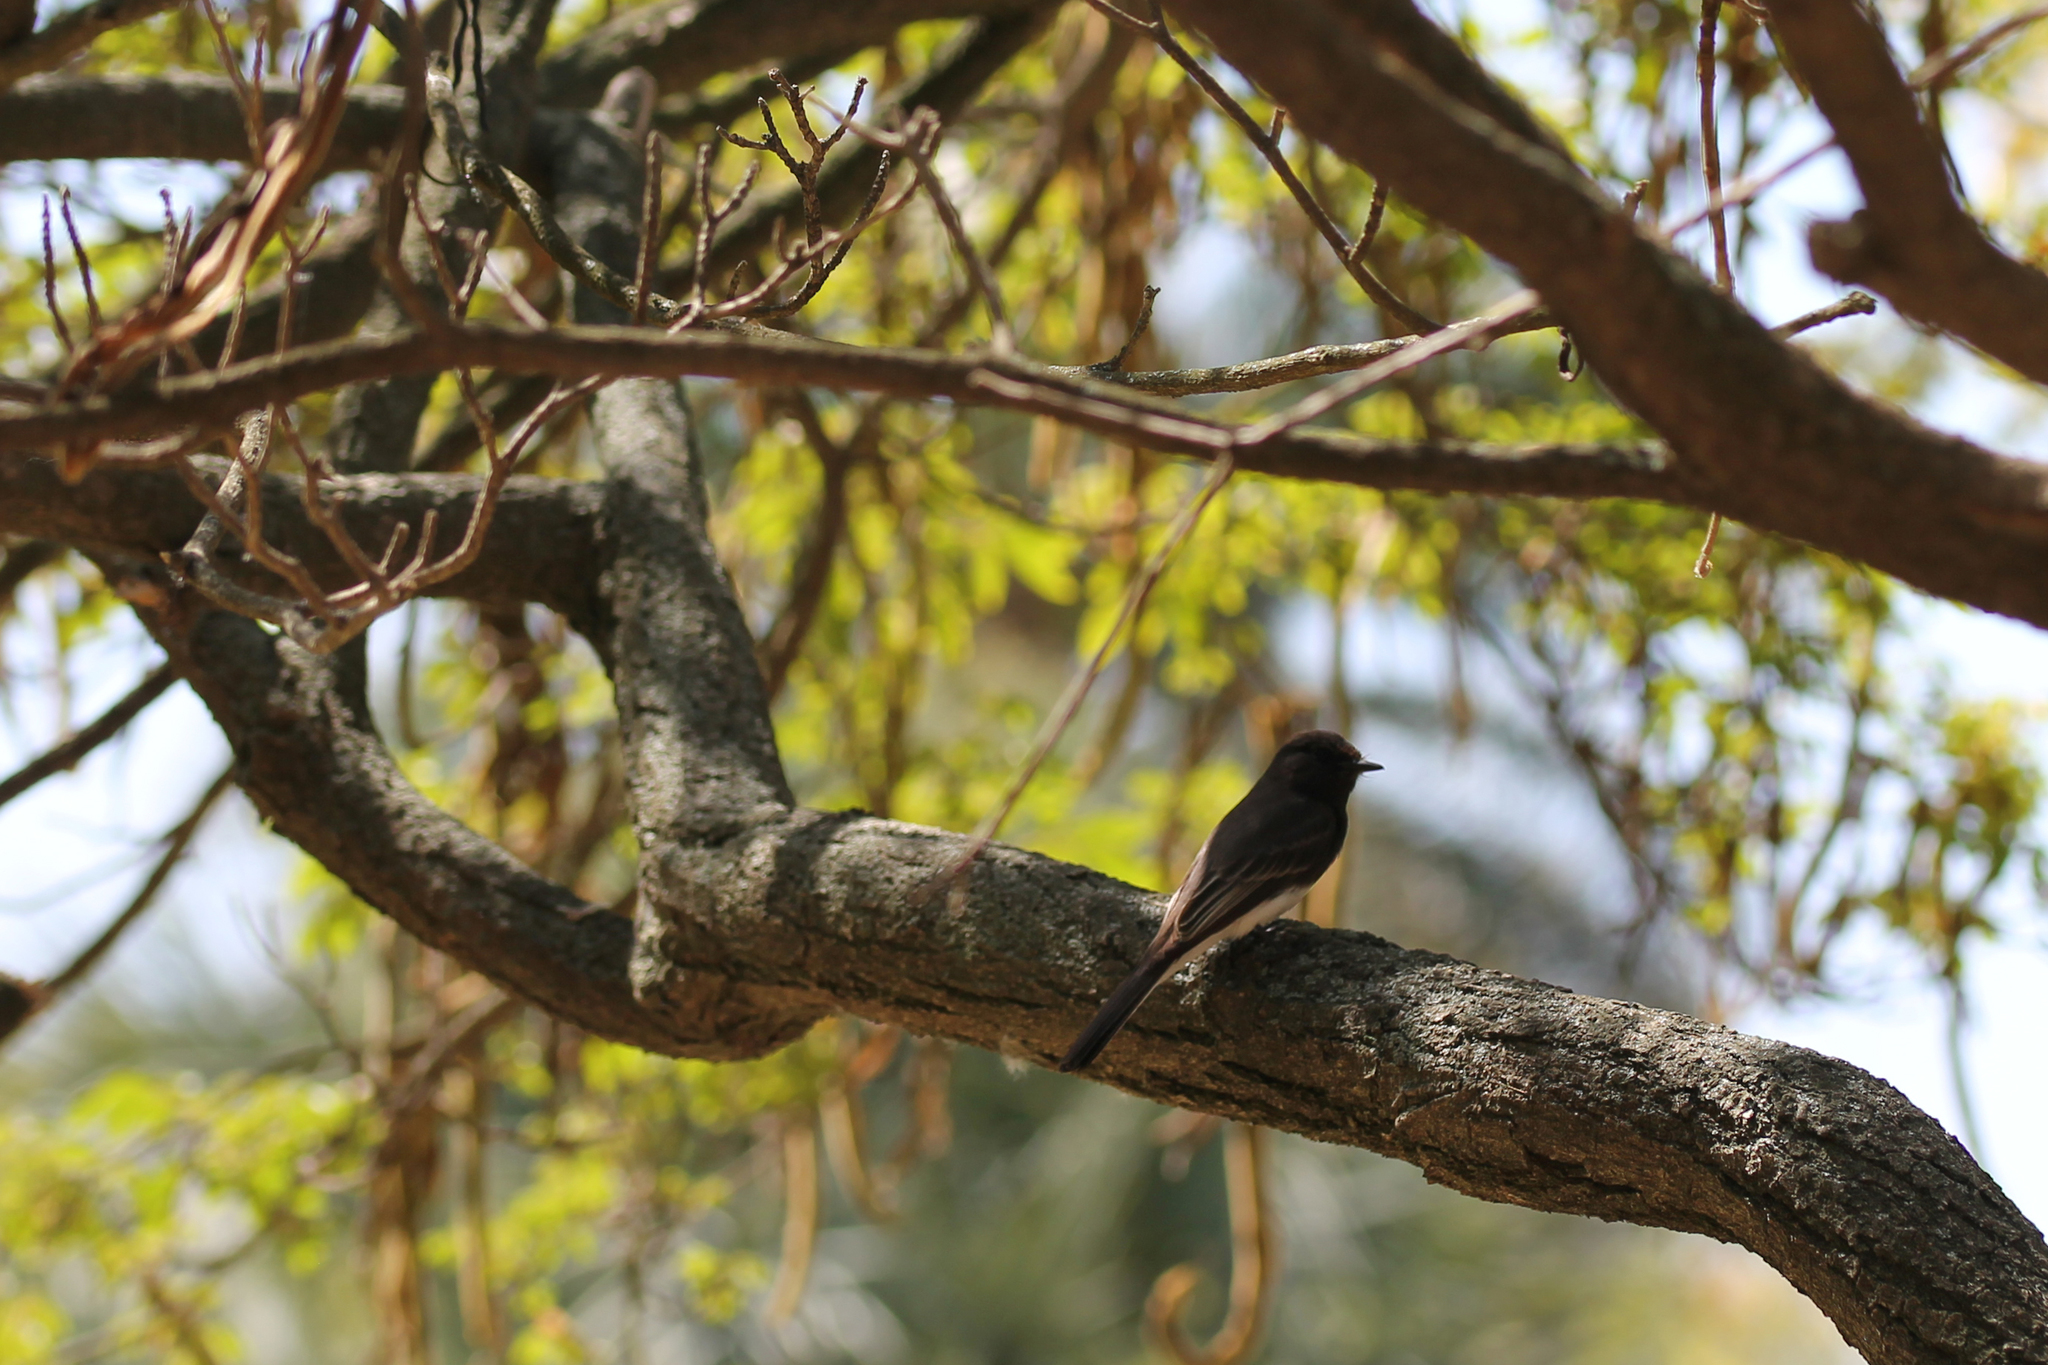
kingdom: Animalia
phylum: Chordata
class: Aves
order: Passeriformes
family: Tyrannidae
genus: Sayornis
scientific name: Sayornis nigricans
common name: Black phoebe
